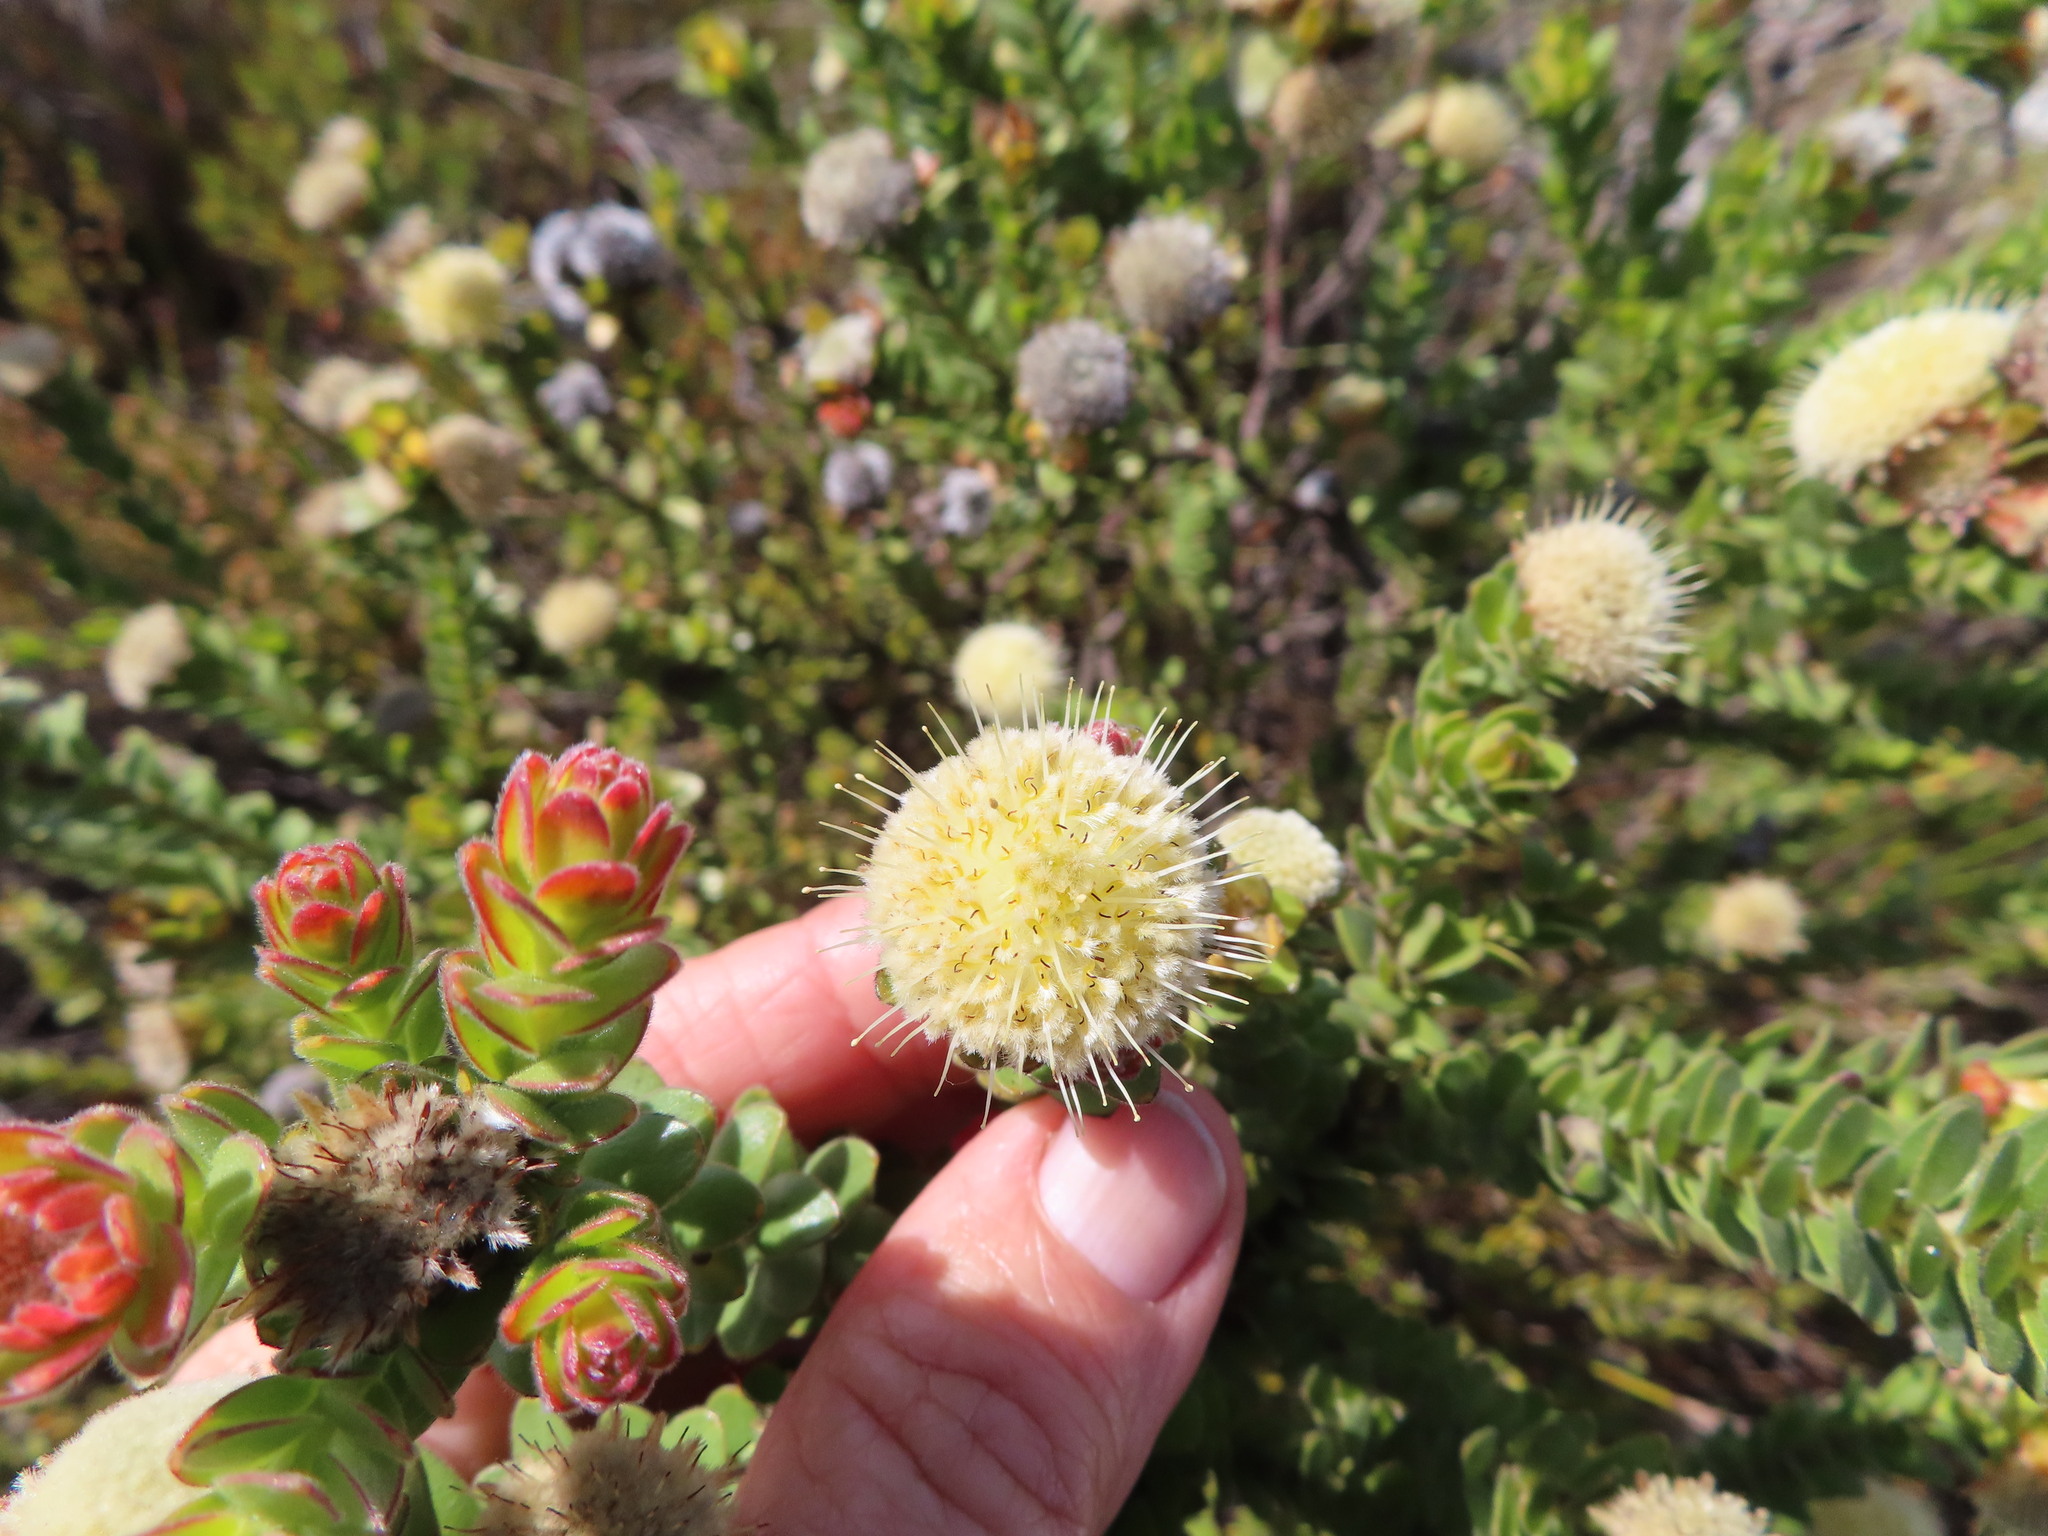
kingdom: Plantae
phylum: Tracheophyta
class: Magnoliopsida
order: Proteales
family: Proteaceae
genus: Diastella
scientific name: Diastella thymelaeoides
